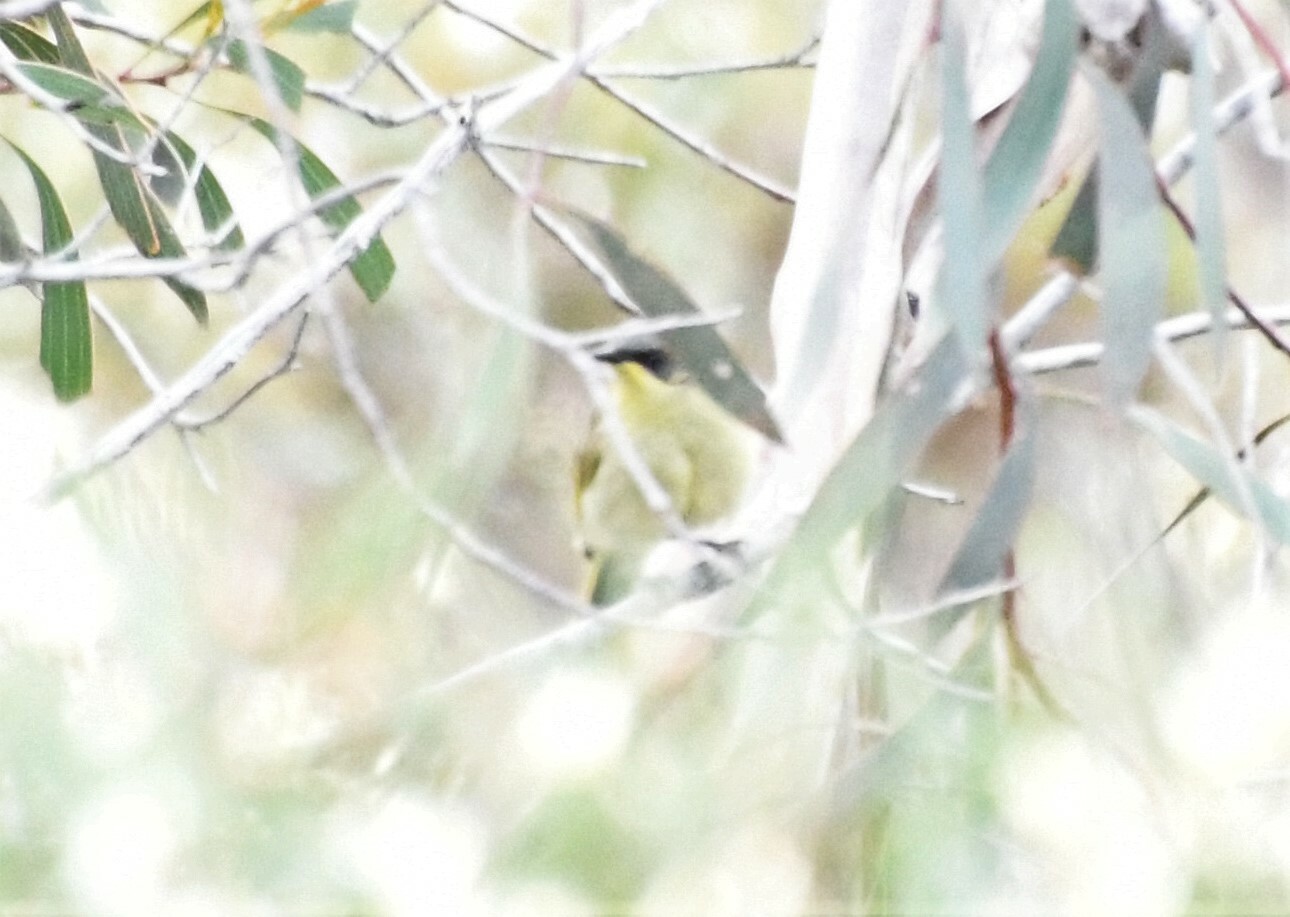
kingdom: Animalia
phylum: Chordata
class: Aves
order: Passeriformes
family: Meliphagidae
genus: Lichenostomus
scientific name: Lichenostomus cratitius
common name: Purple-gaped honeyeater
